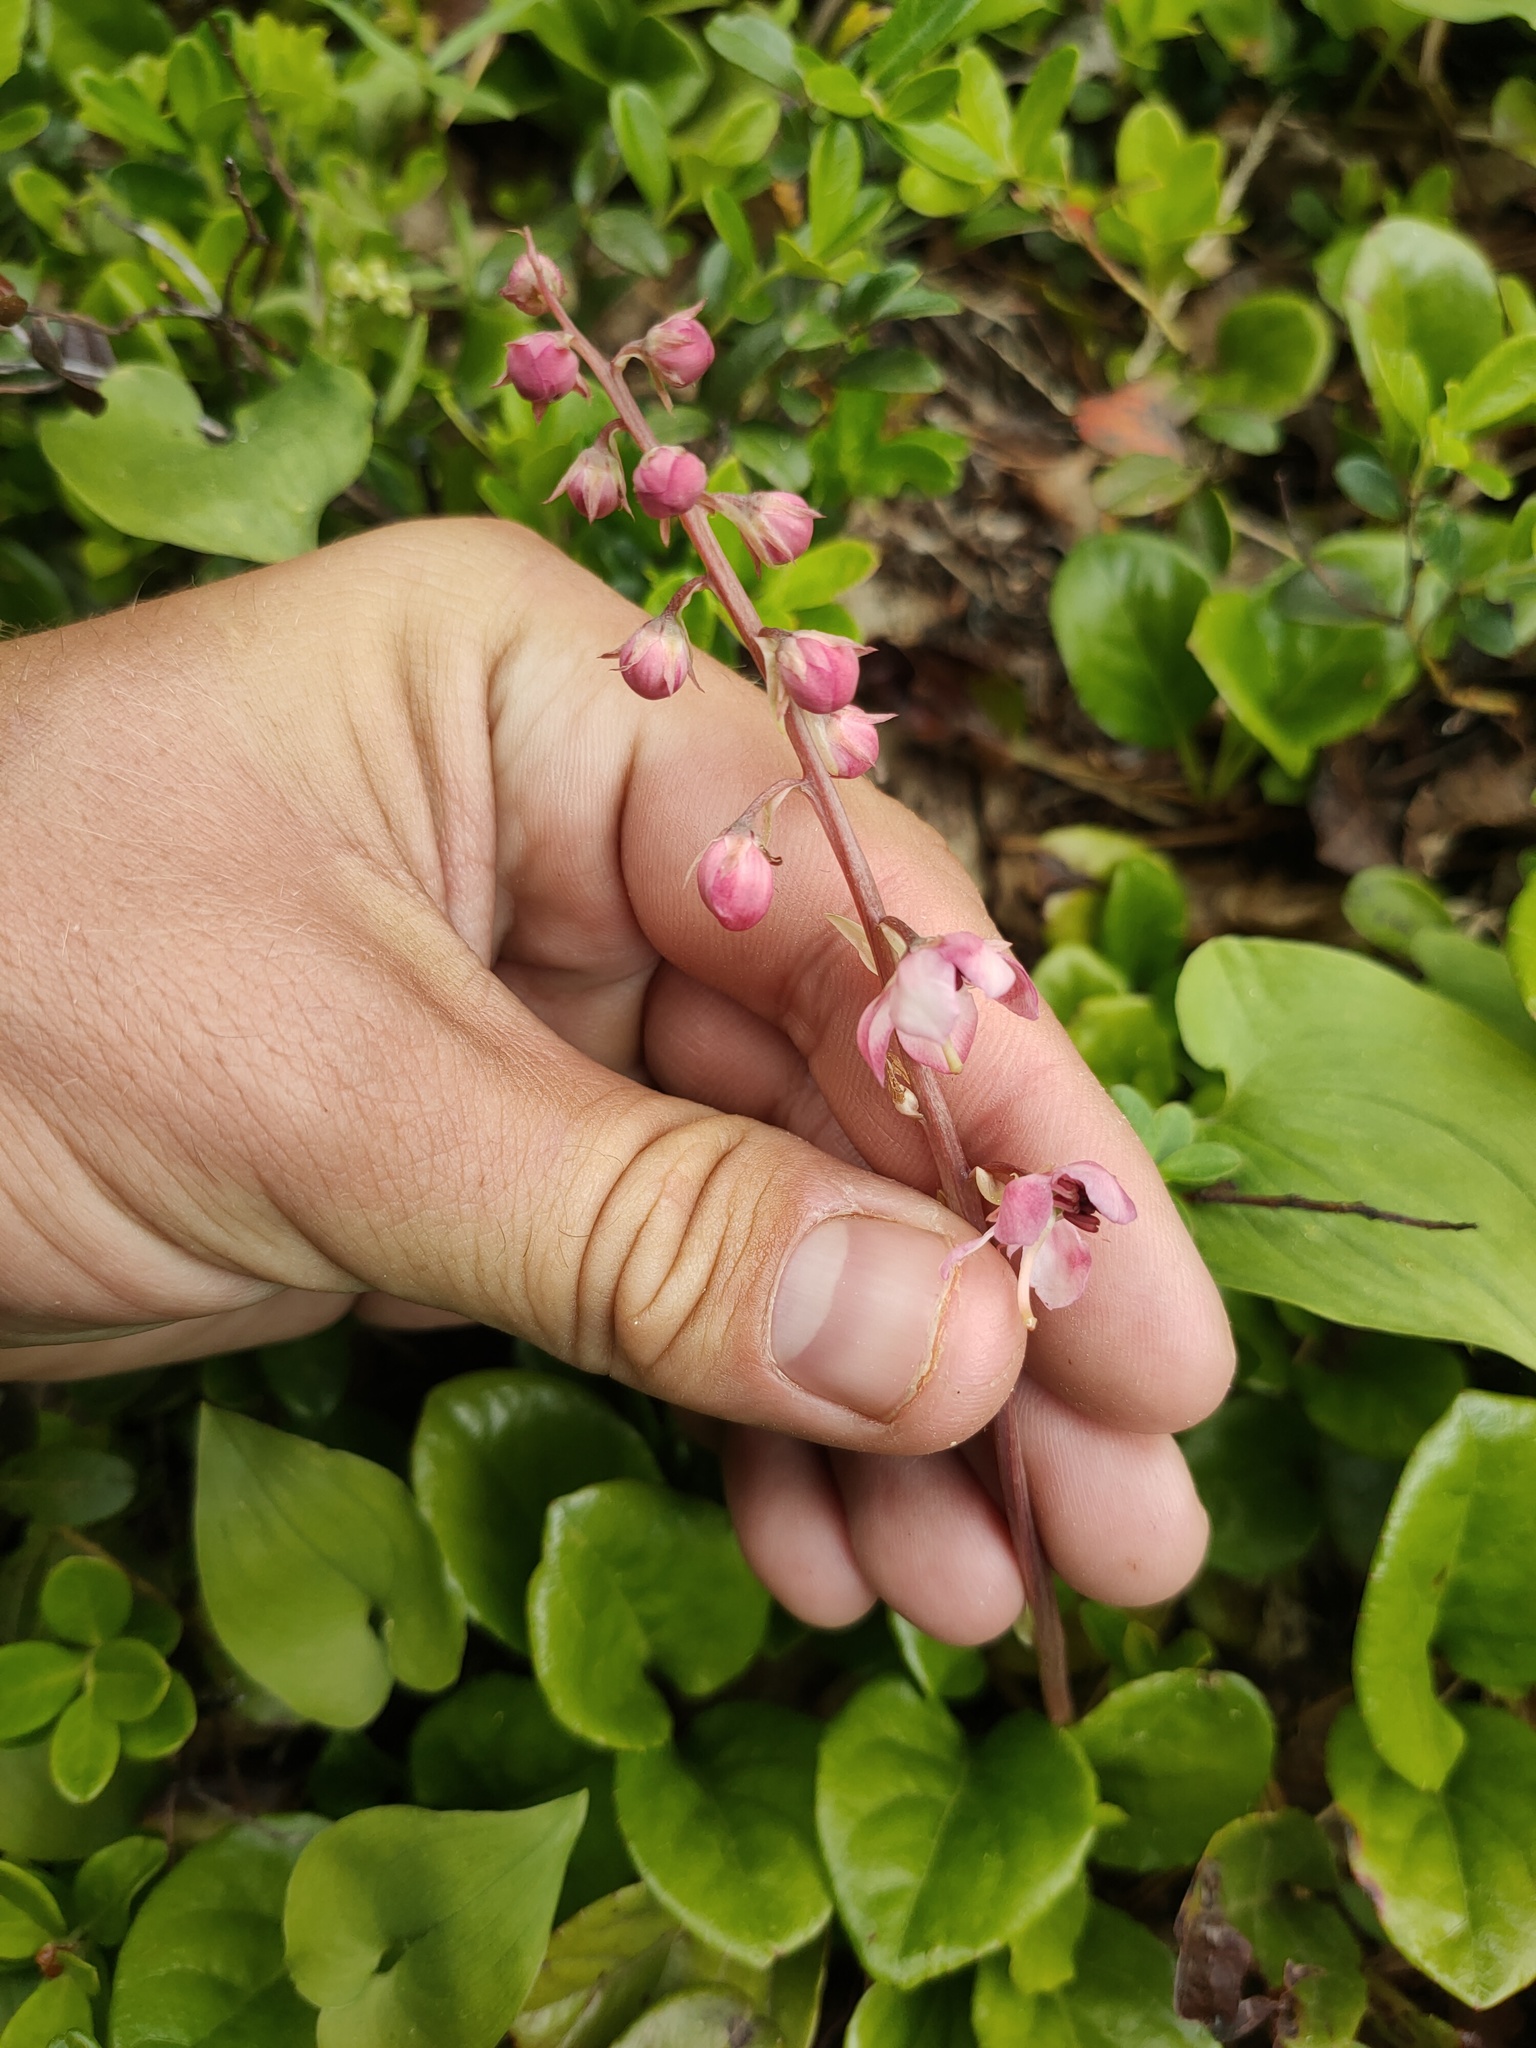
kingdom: Plantae
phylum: Tracheophyta
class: Magnoliopsida
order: Ericales
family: Ericaceae
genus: Pyrola
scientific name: Pyrola asarifolia
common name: Bog wintergreen
